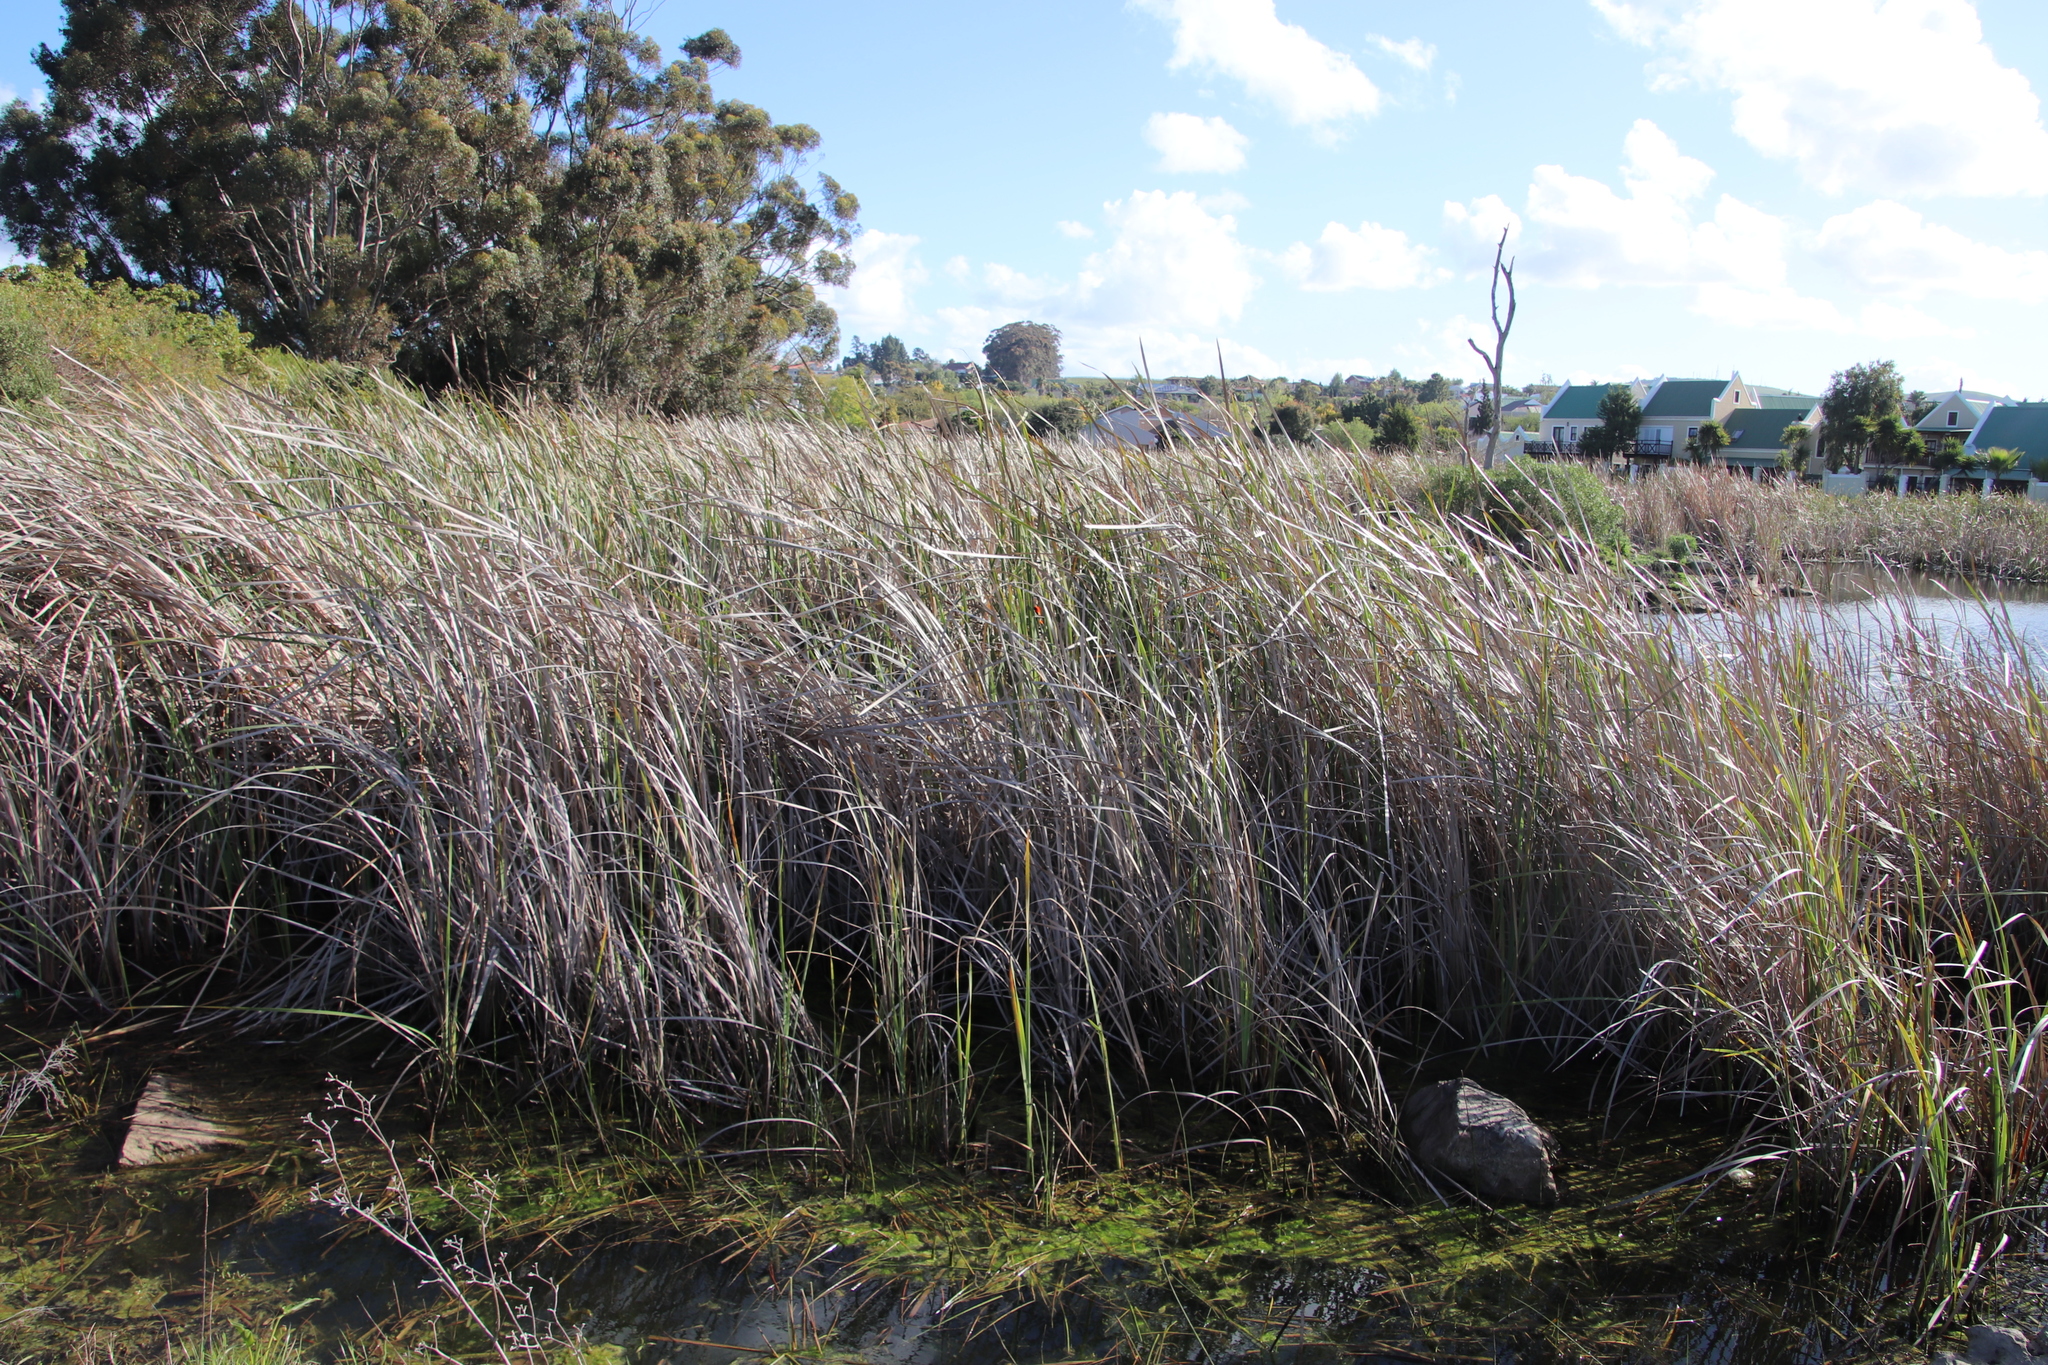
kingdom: Plantae
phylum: Tracheophyta
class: Liliopsida
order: Poales
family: Typhaceae
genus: Typha
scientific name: Typha capensis
